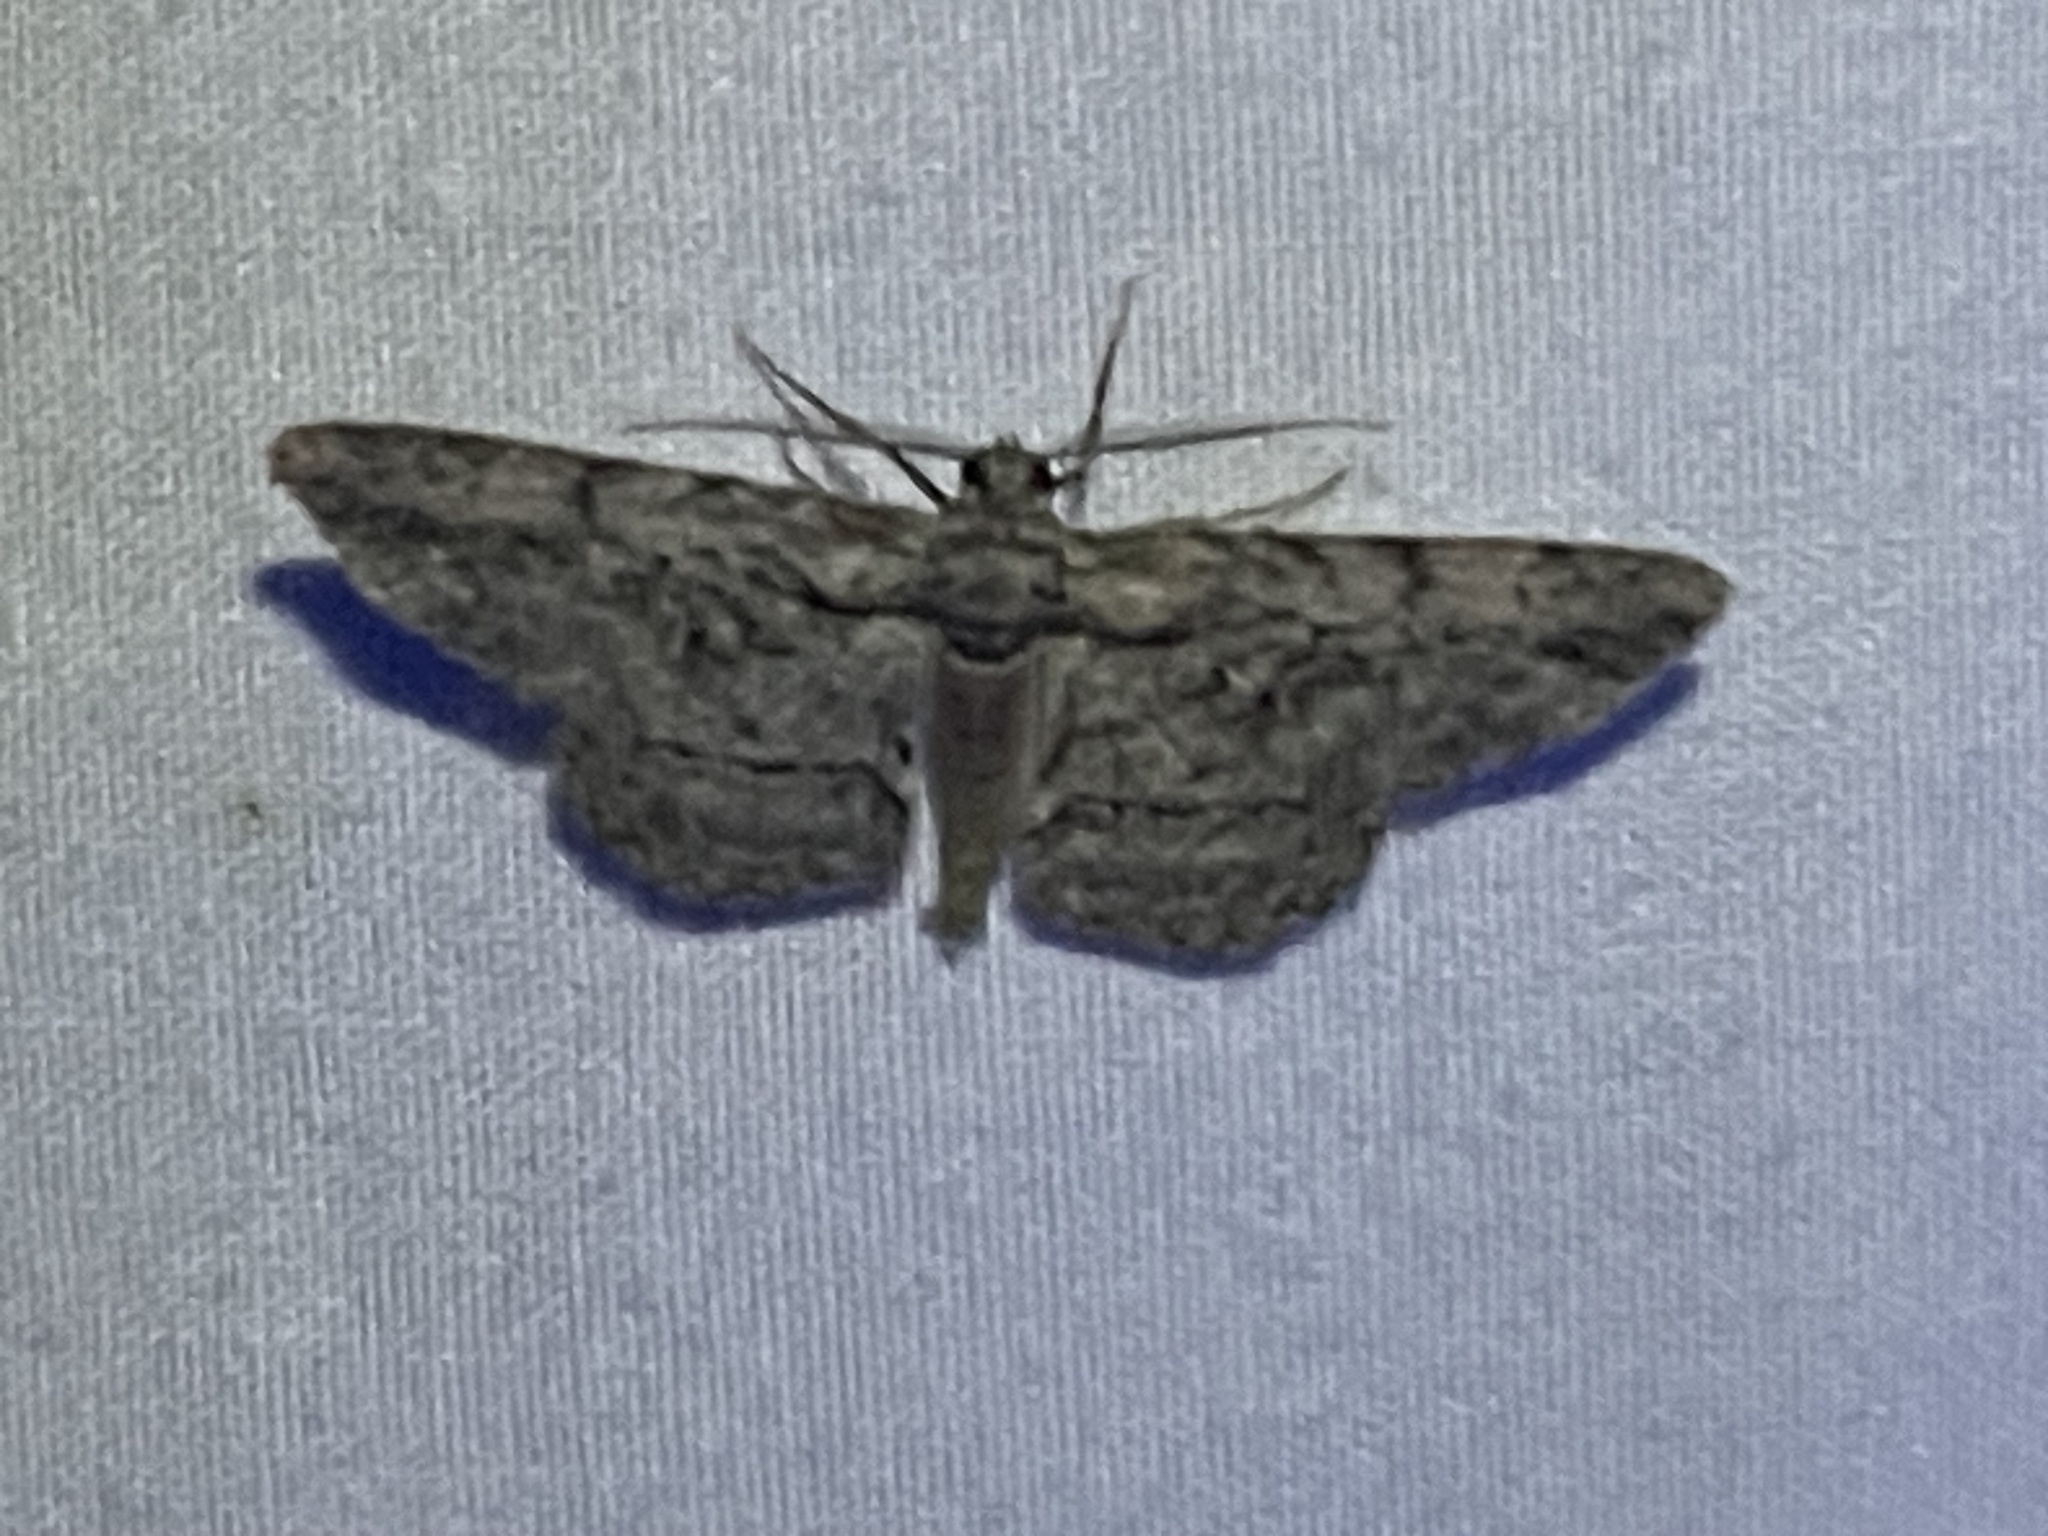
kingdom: Animalia
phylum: Arthropoda
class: Insecta
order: Lepidoptera
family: Geometridae
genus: Anavitrinella
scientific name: Anavitrinella pampinaria
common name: Common gray
